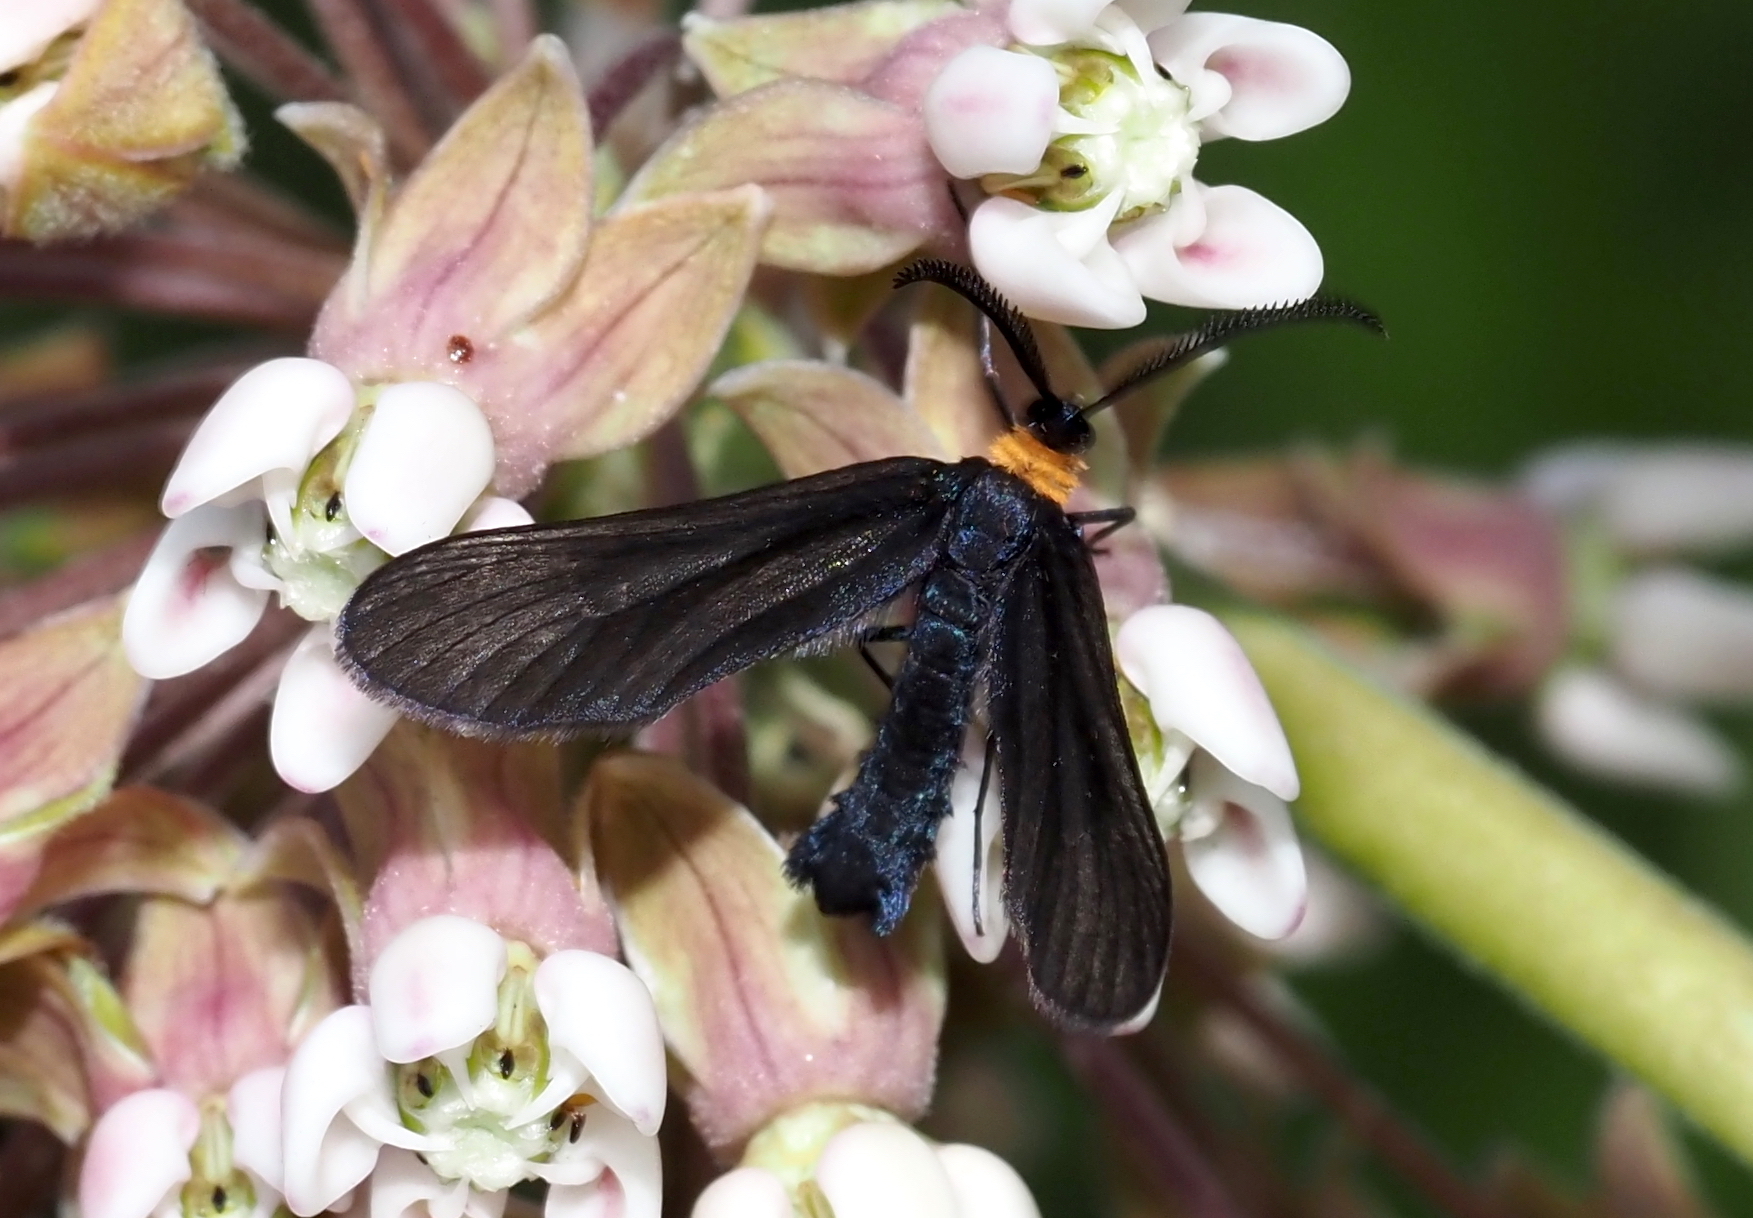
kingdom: Animalia
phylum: Arthropoda
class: Insecta
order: Lepidoptera
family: Zygaenidae
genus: Harrisina
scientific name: Harrisina americana
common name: Grapeleaf skeletonizer moth
